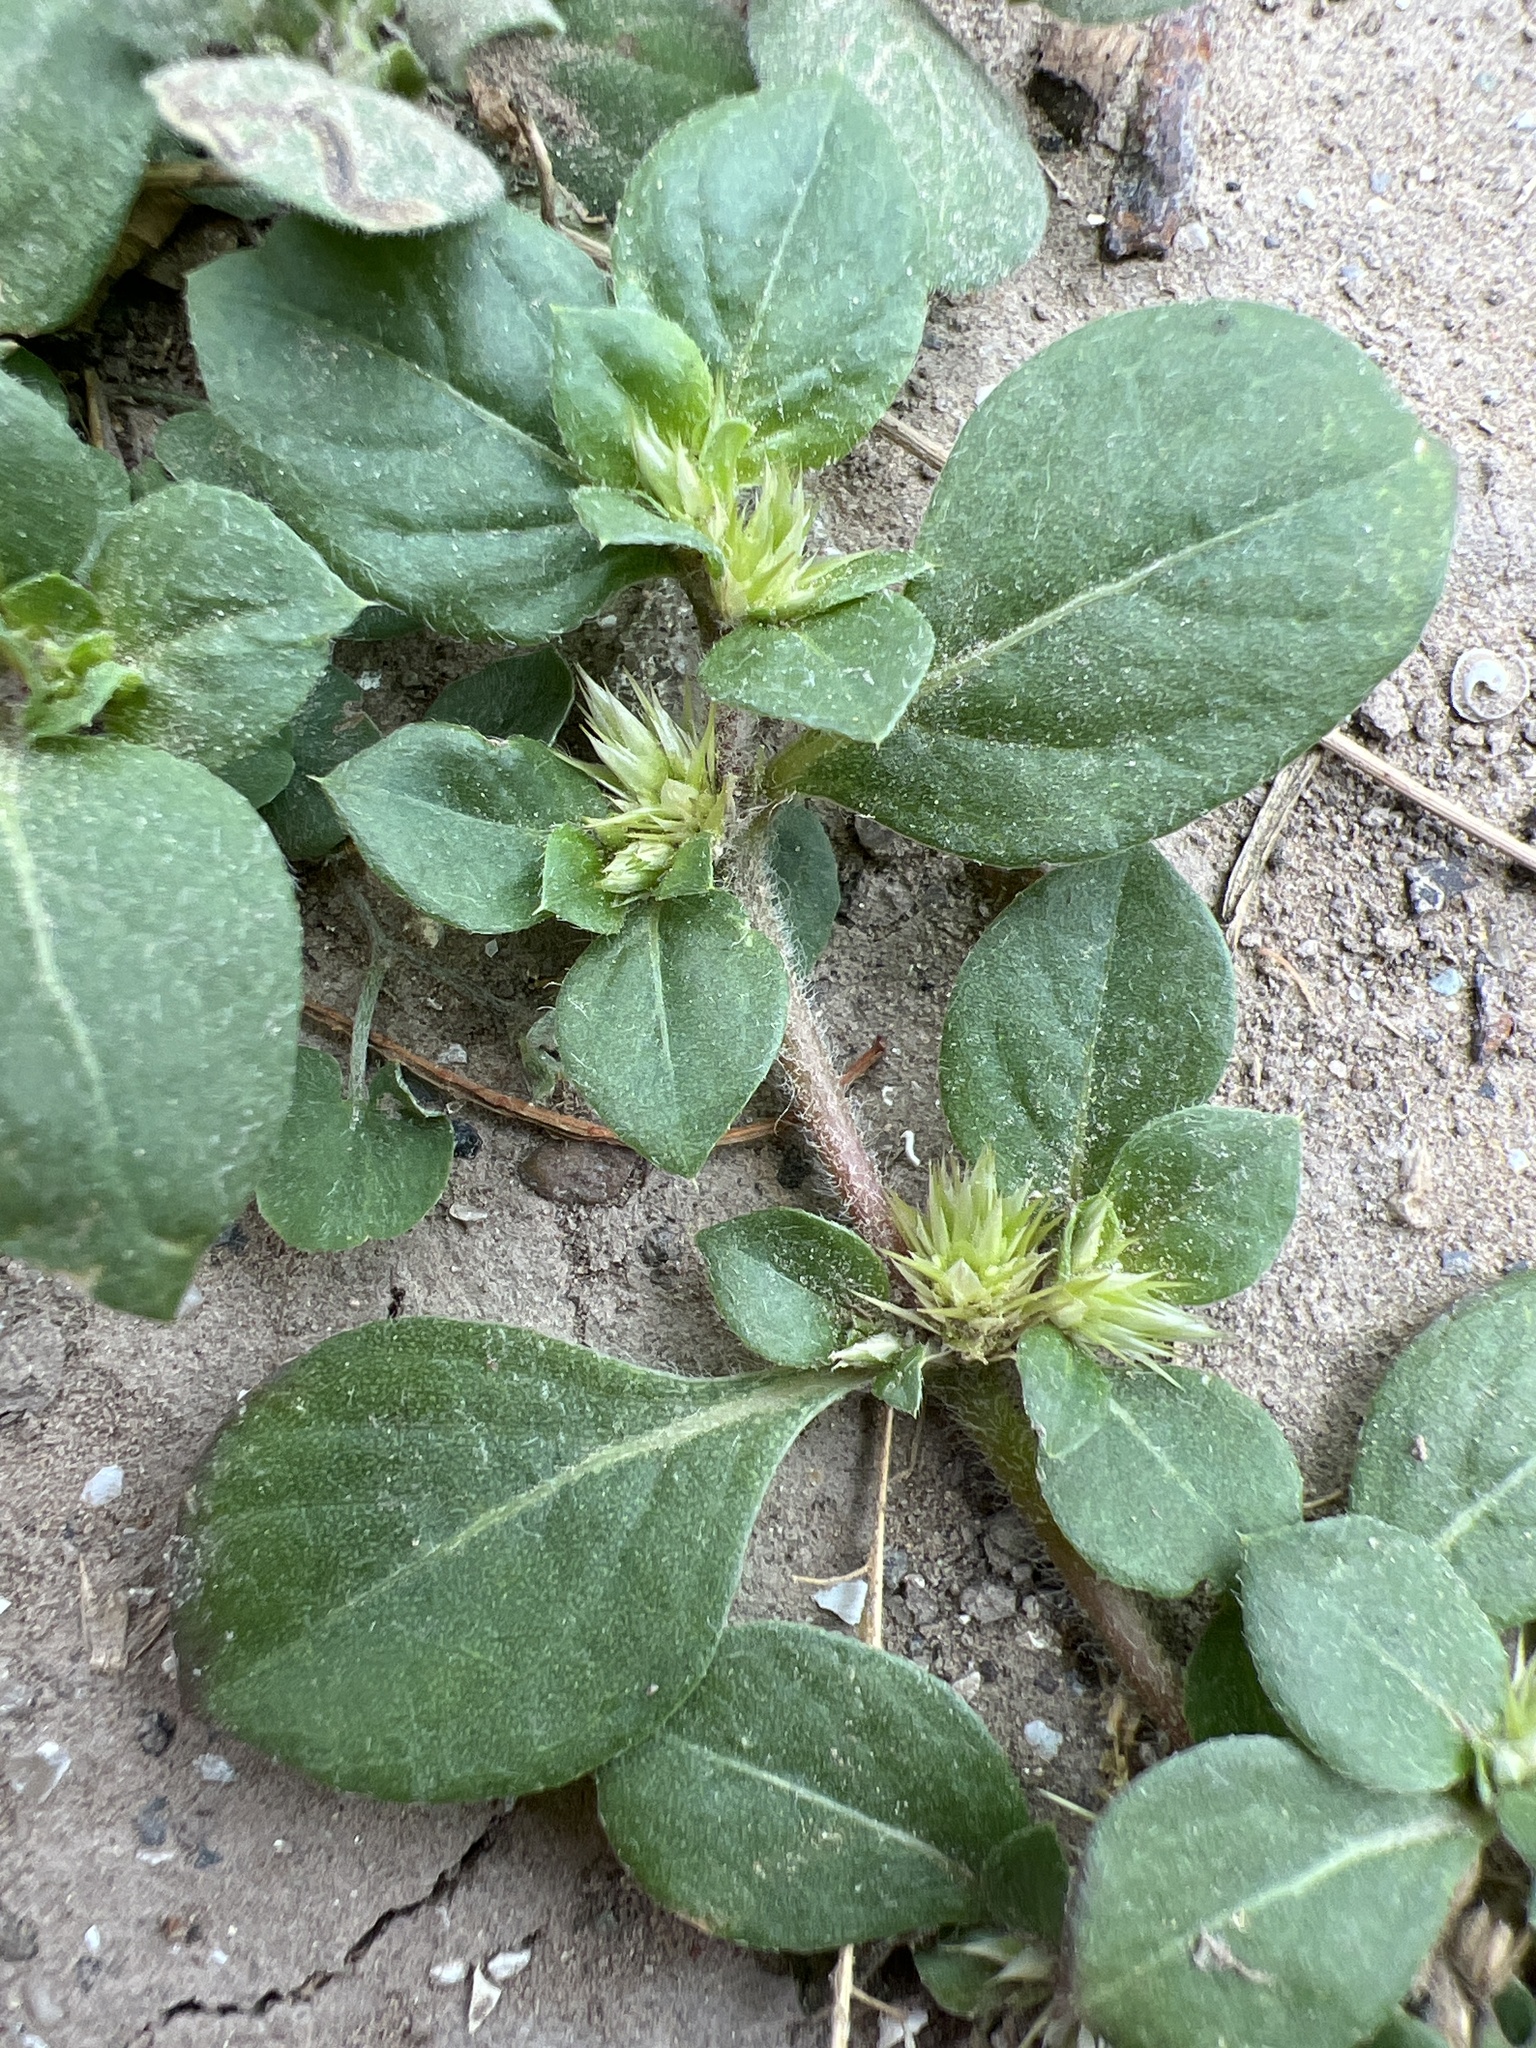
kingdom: Plantae
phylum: Tracheophyta
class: Magnoliopsida
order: Caryophyllales
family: Amaranthaceae
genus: Alternanthera
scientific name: Alternanthera pungens
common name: Khakiweed
